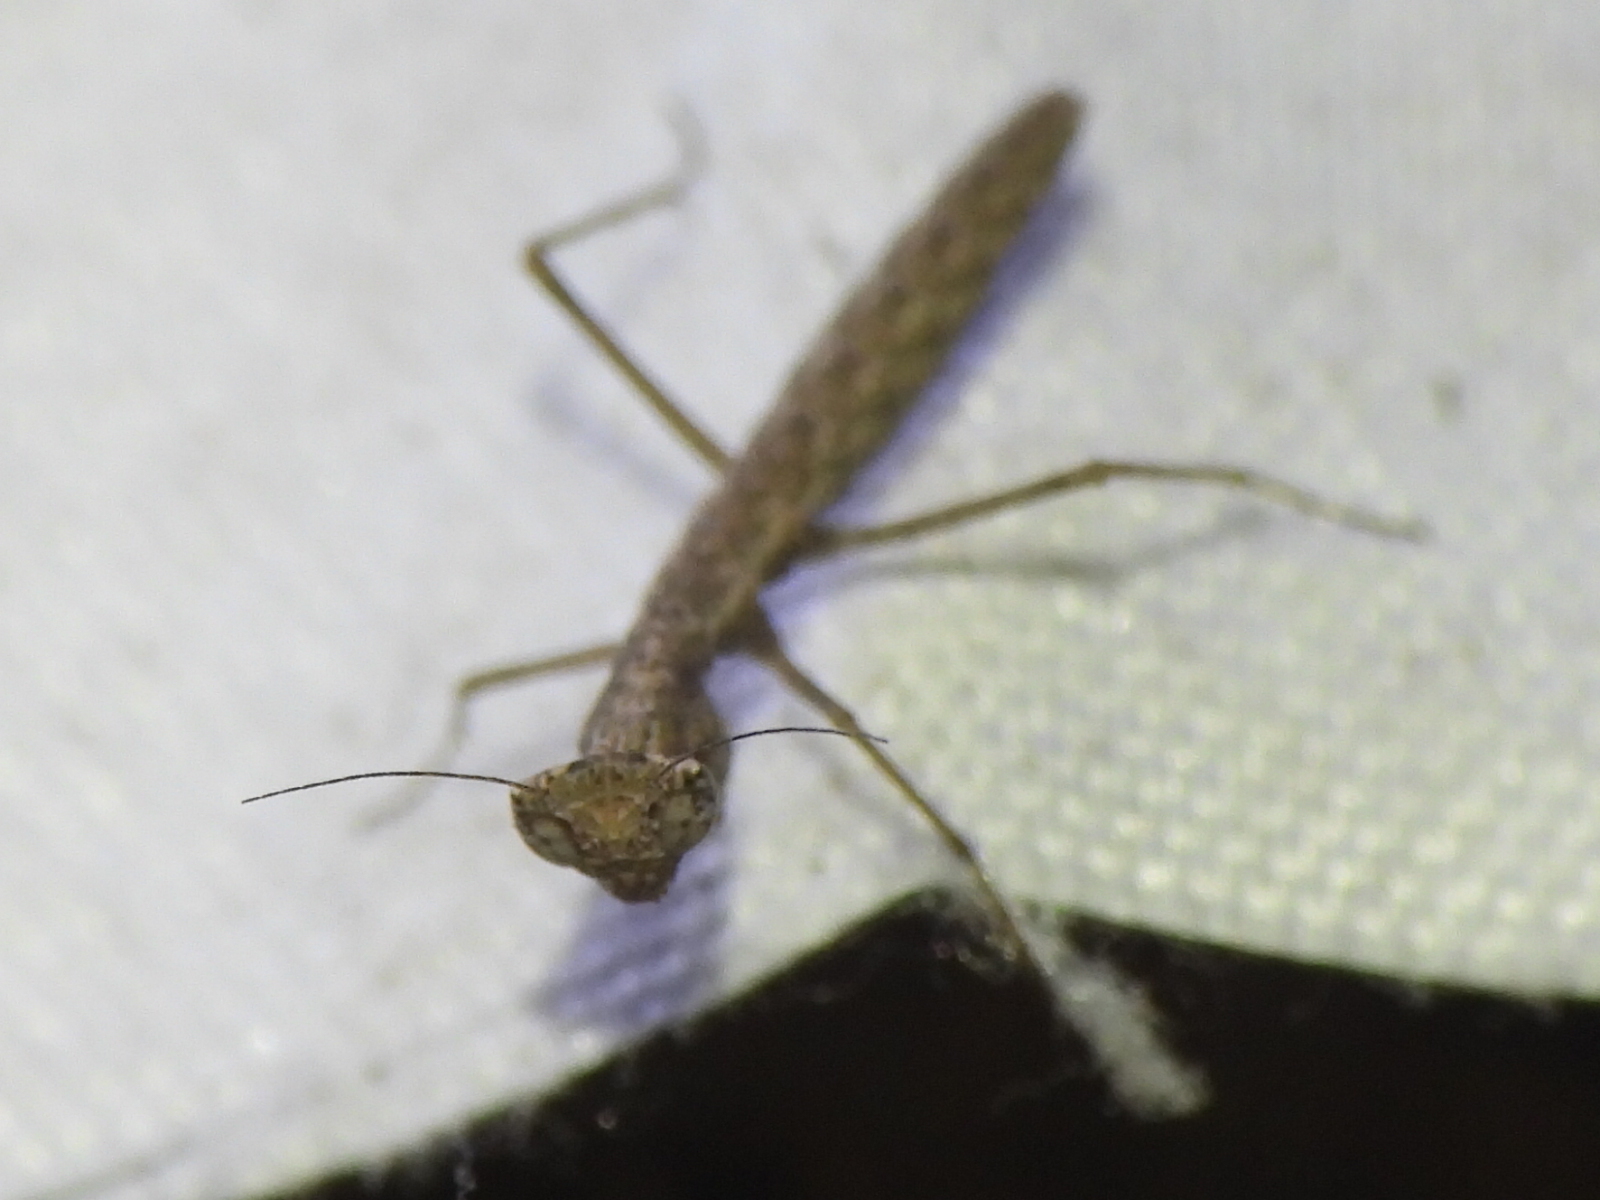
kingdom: Animalia
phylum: Arthropoda
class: Insecta
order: Mantodea
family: Amelidae
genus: Litaneutria
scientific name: Litaneutria minor
